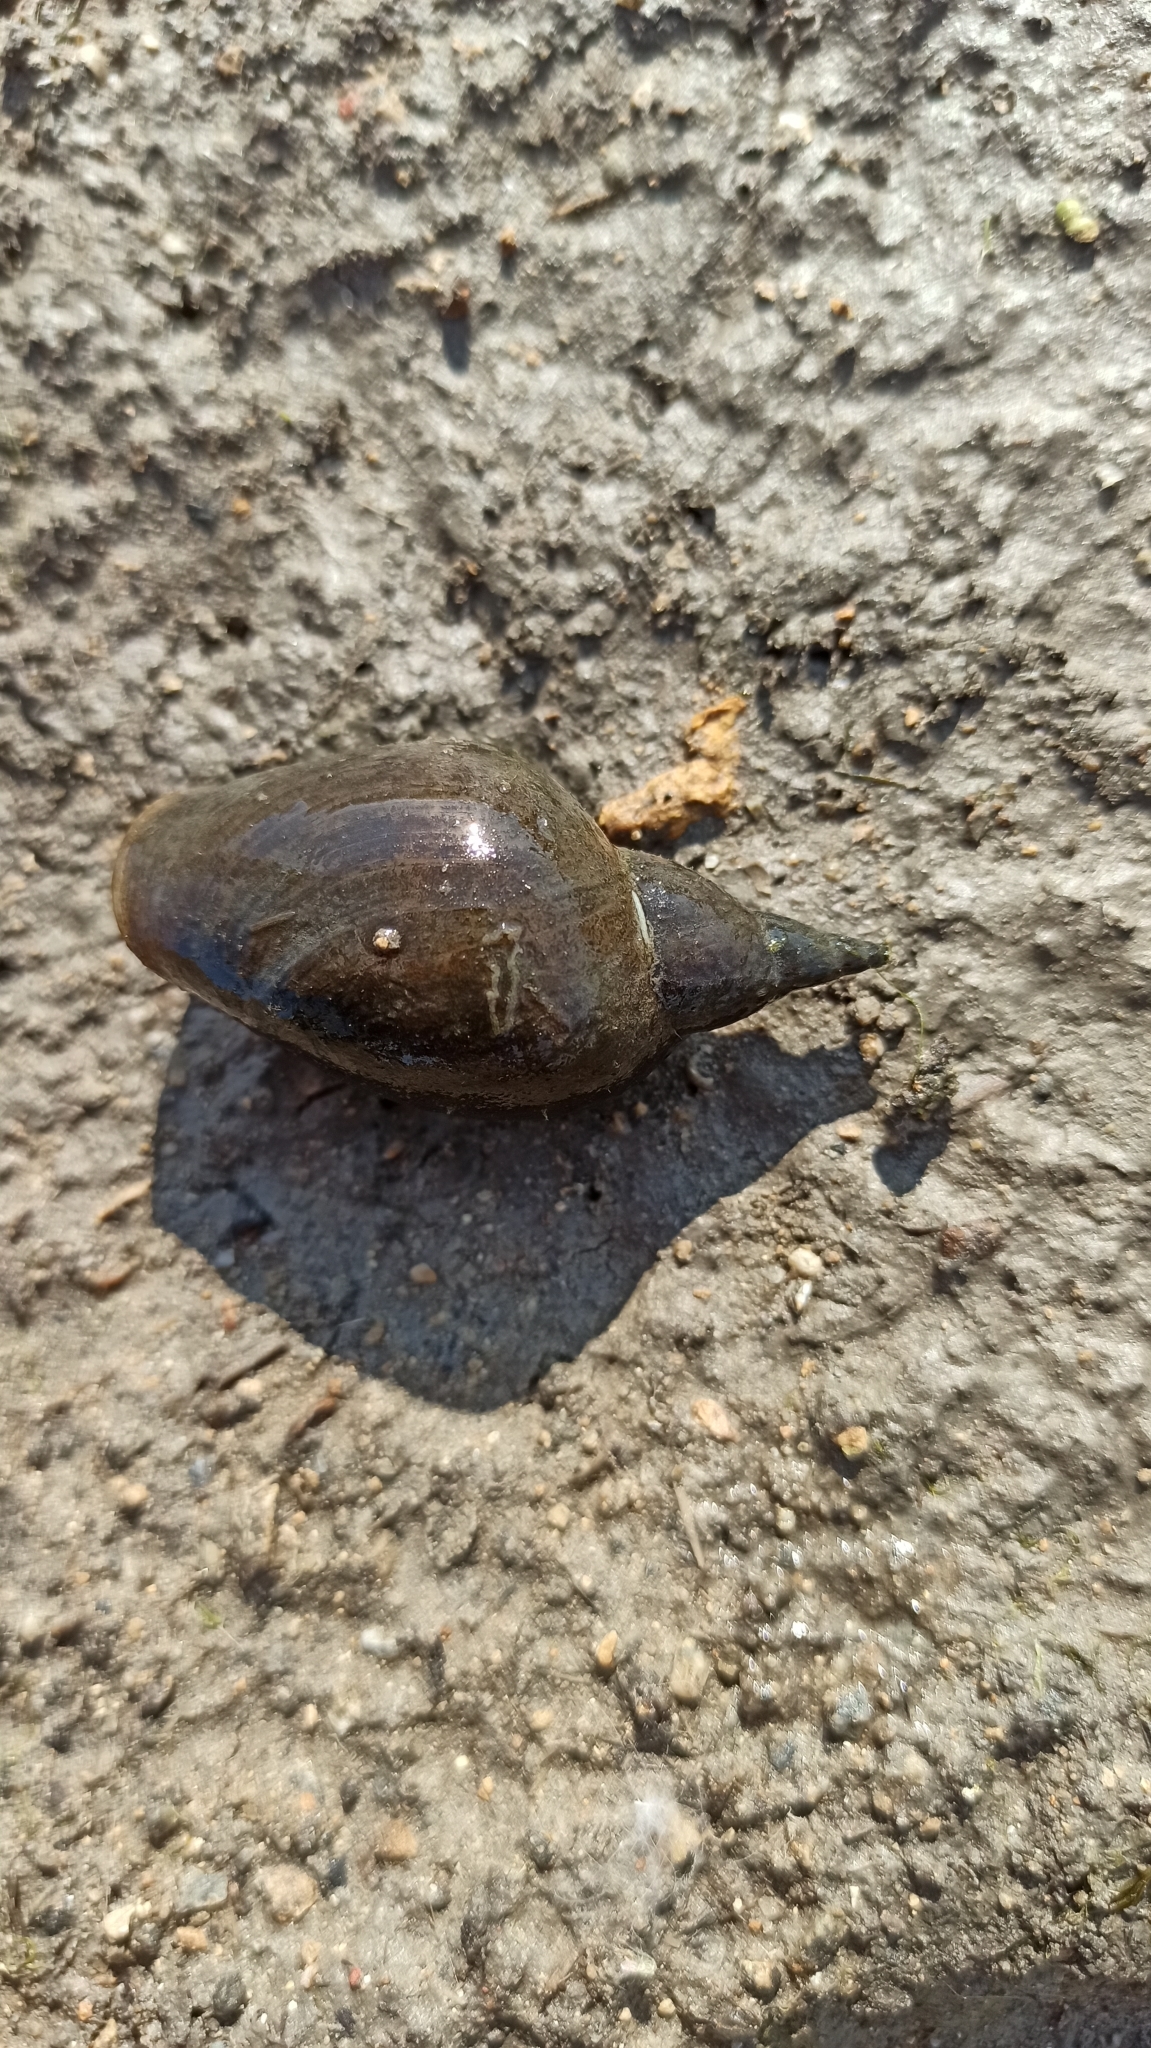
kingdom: Animalia
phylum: Mollusca
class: Gastropoda
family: Lymnaeidae
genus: Lymnaea
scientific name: Lymnaea stagnalis
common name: Great pond snail
